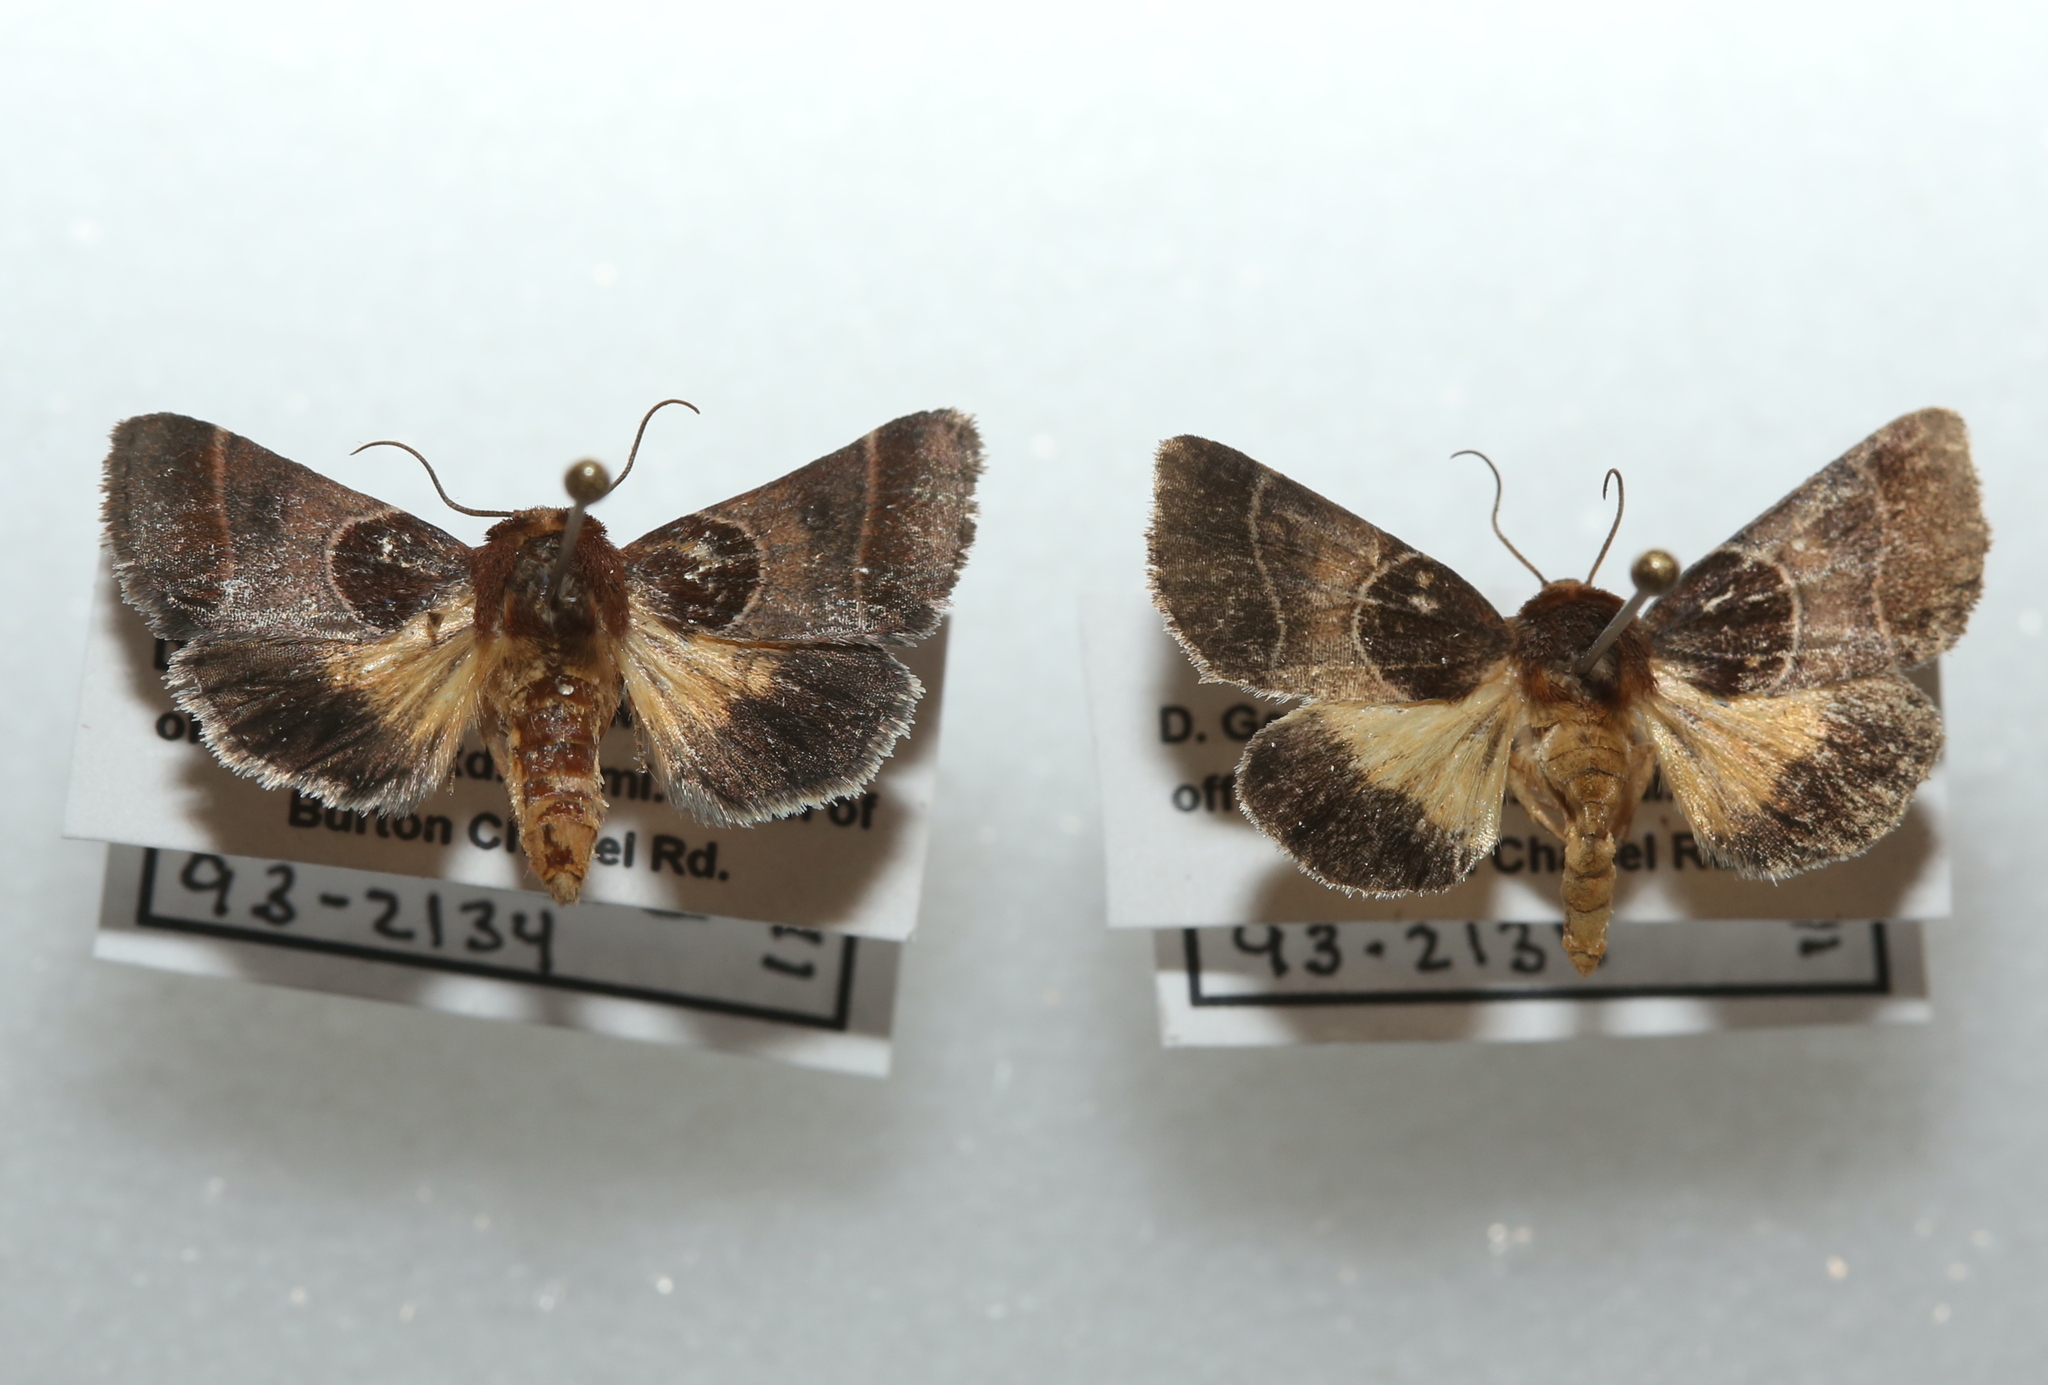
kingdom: Animalia
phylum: Arthropoda
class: Insecta
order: Lepidoptera
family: Noctuidae
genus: Schinia
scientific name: Schinia arcigera
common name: Arcigera flower moth
